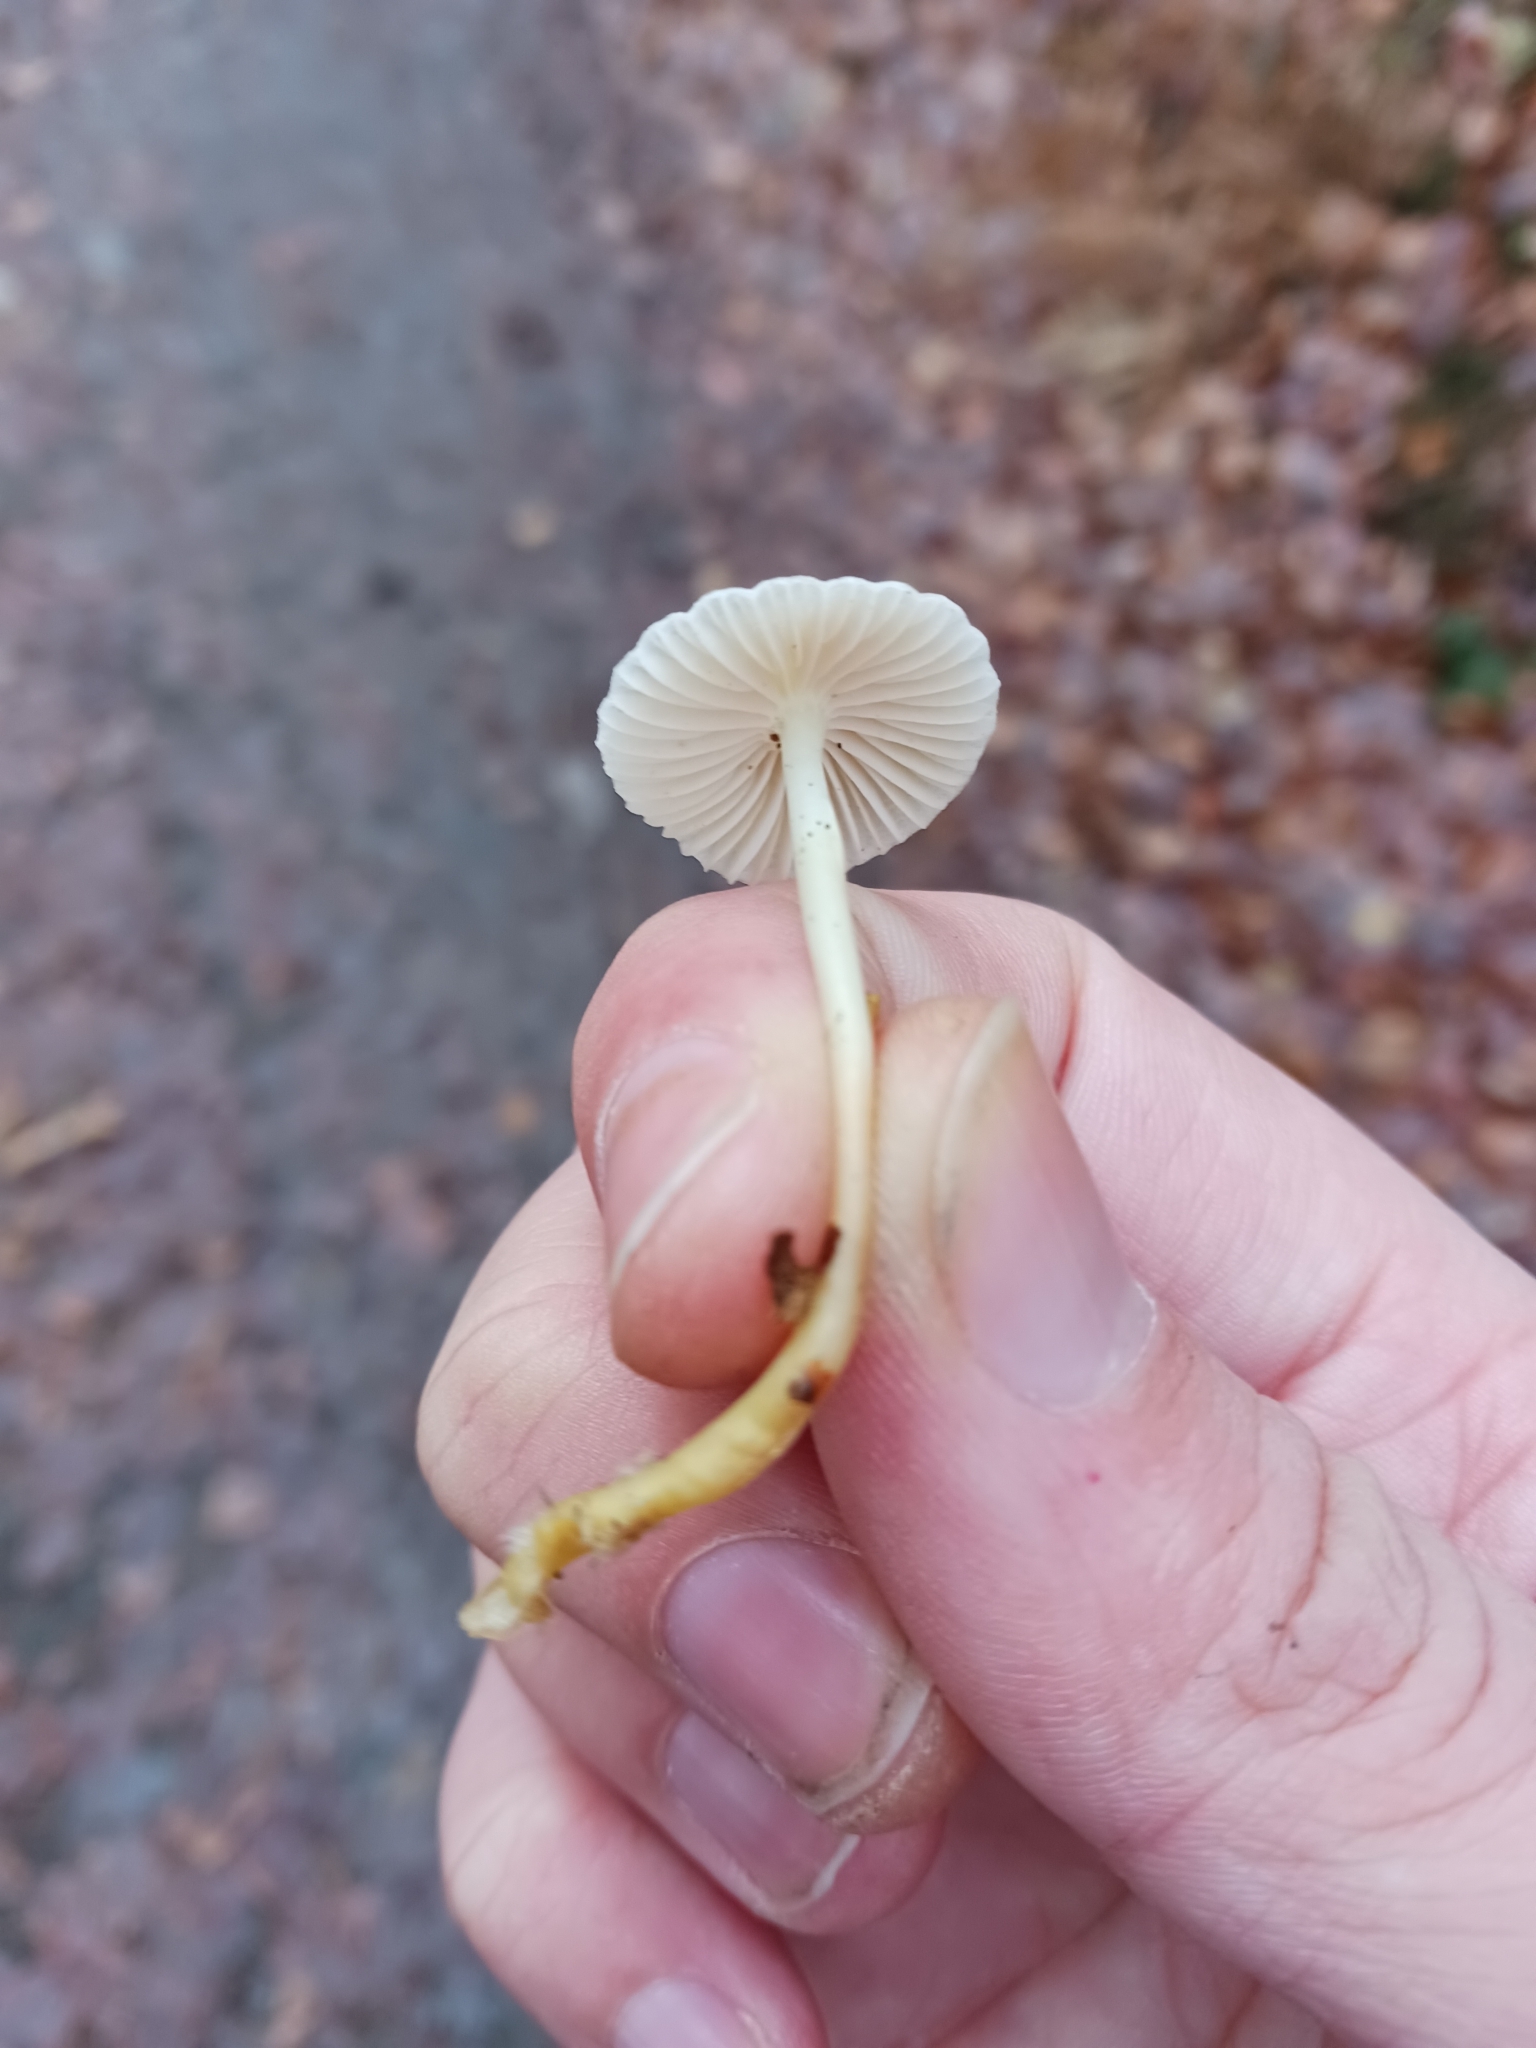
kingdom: Fungi
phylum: Basidiomycota
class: Agaricomycetes
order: Agaricales
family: Mycenaceae
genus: Mycena
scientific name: Mycena
